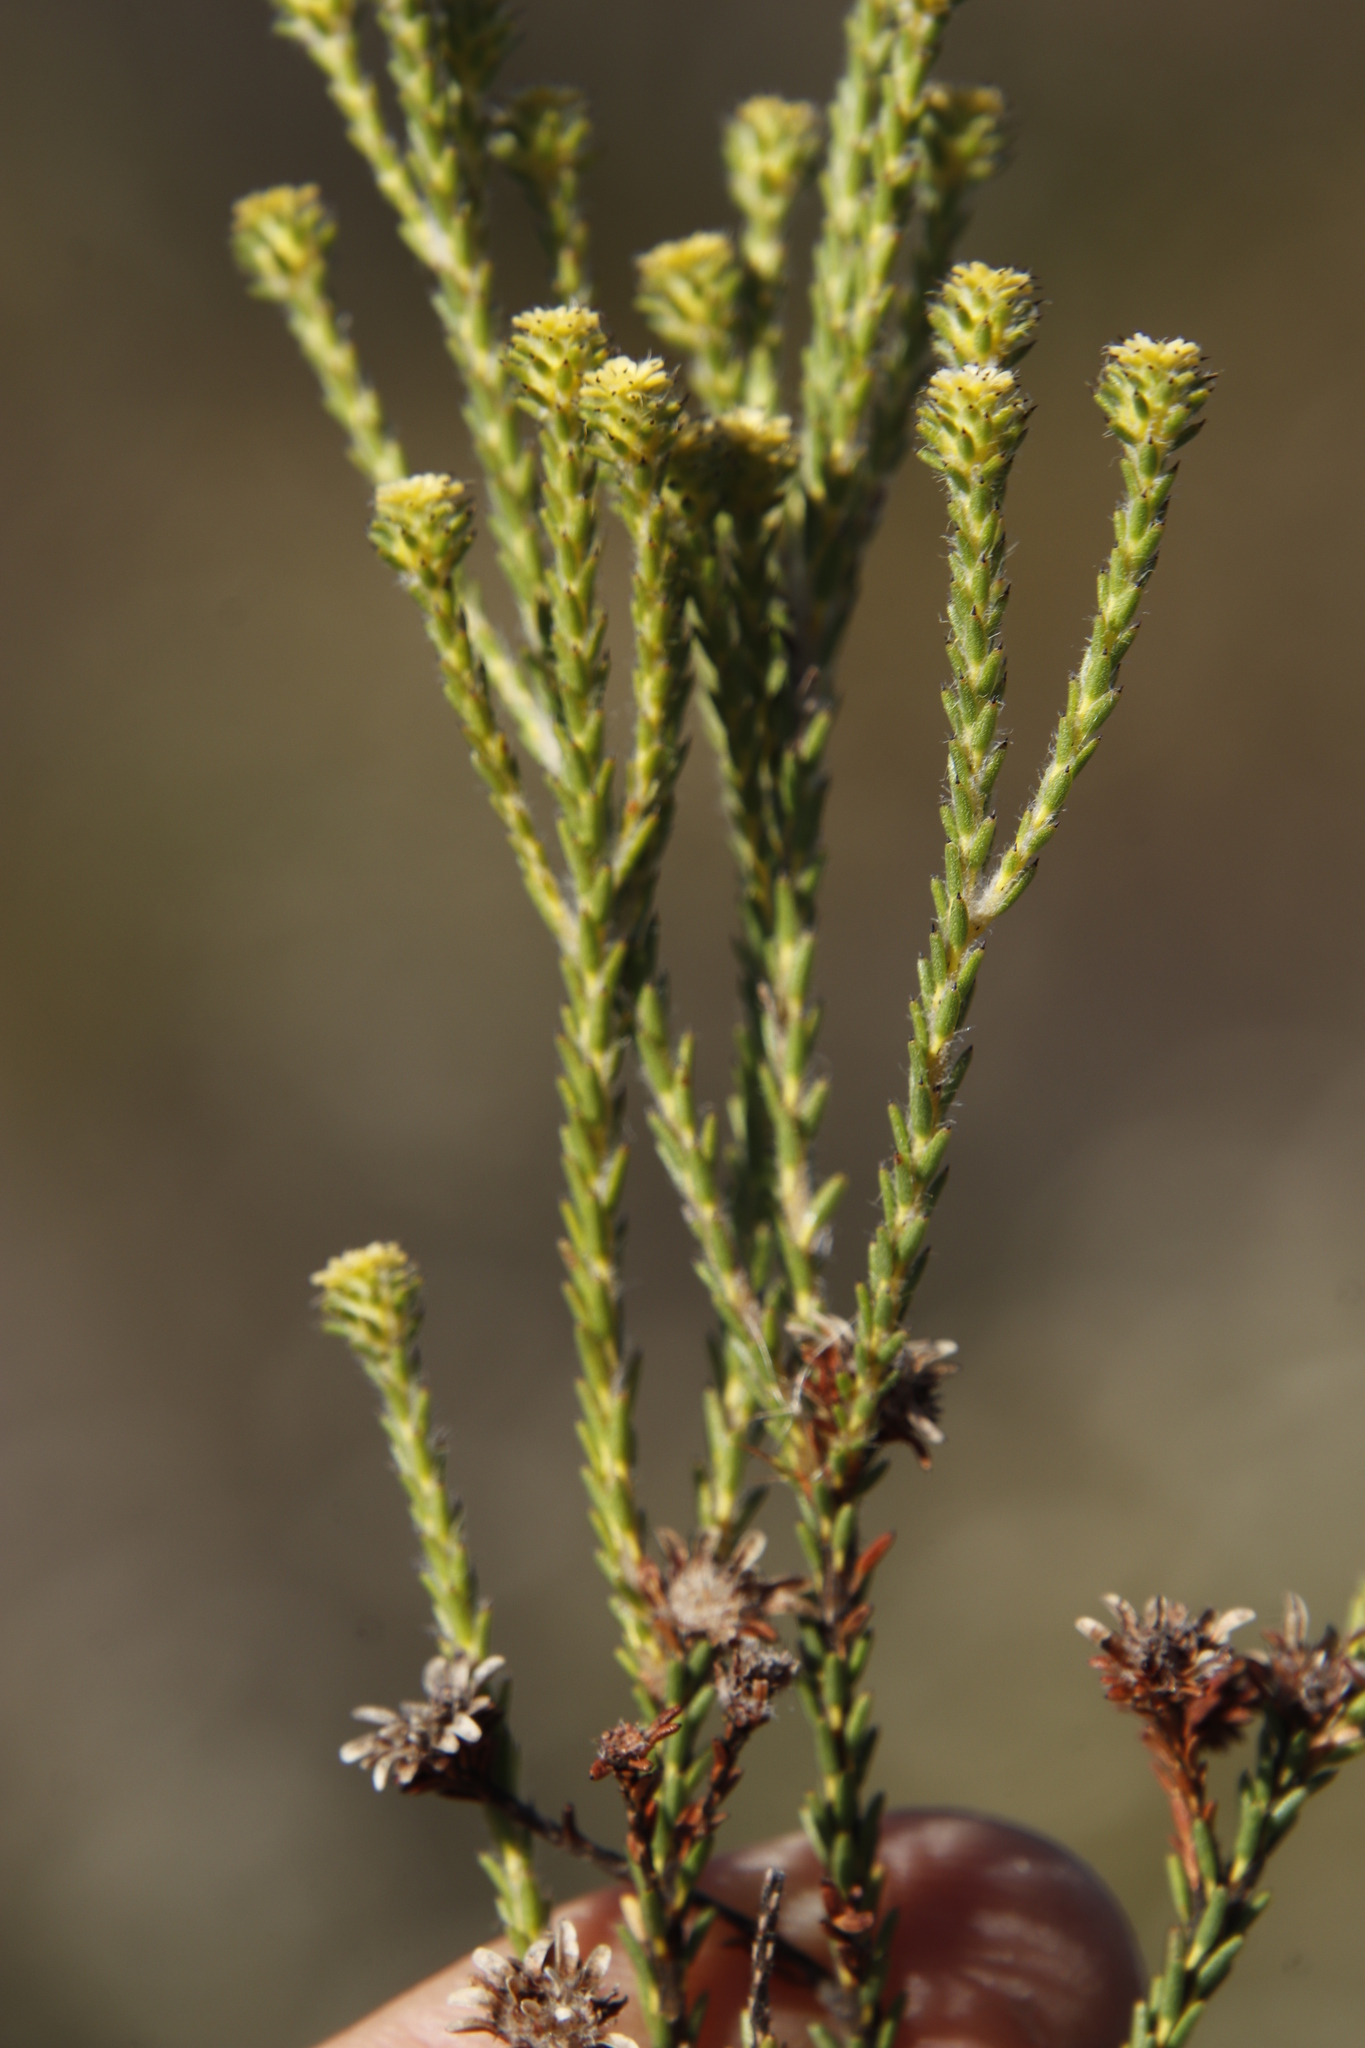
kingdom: Plantae
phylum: Tracheophyta
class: Magnoliopsida
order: Bruniales
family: Bruniaceae
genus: Staavia
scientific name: Staavia radiata
